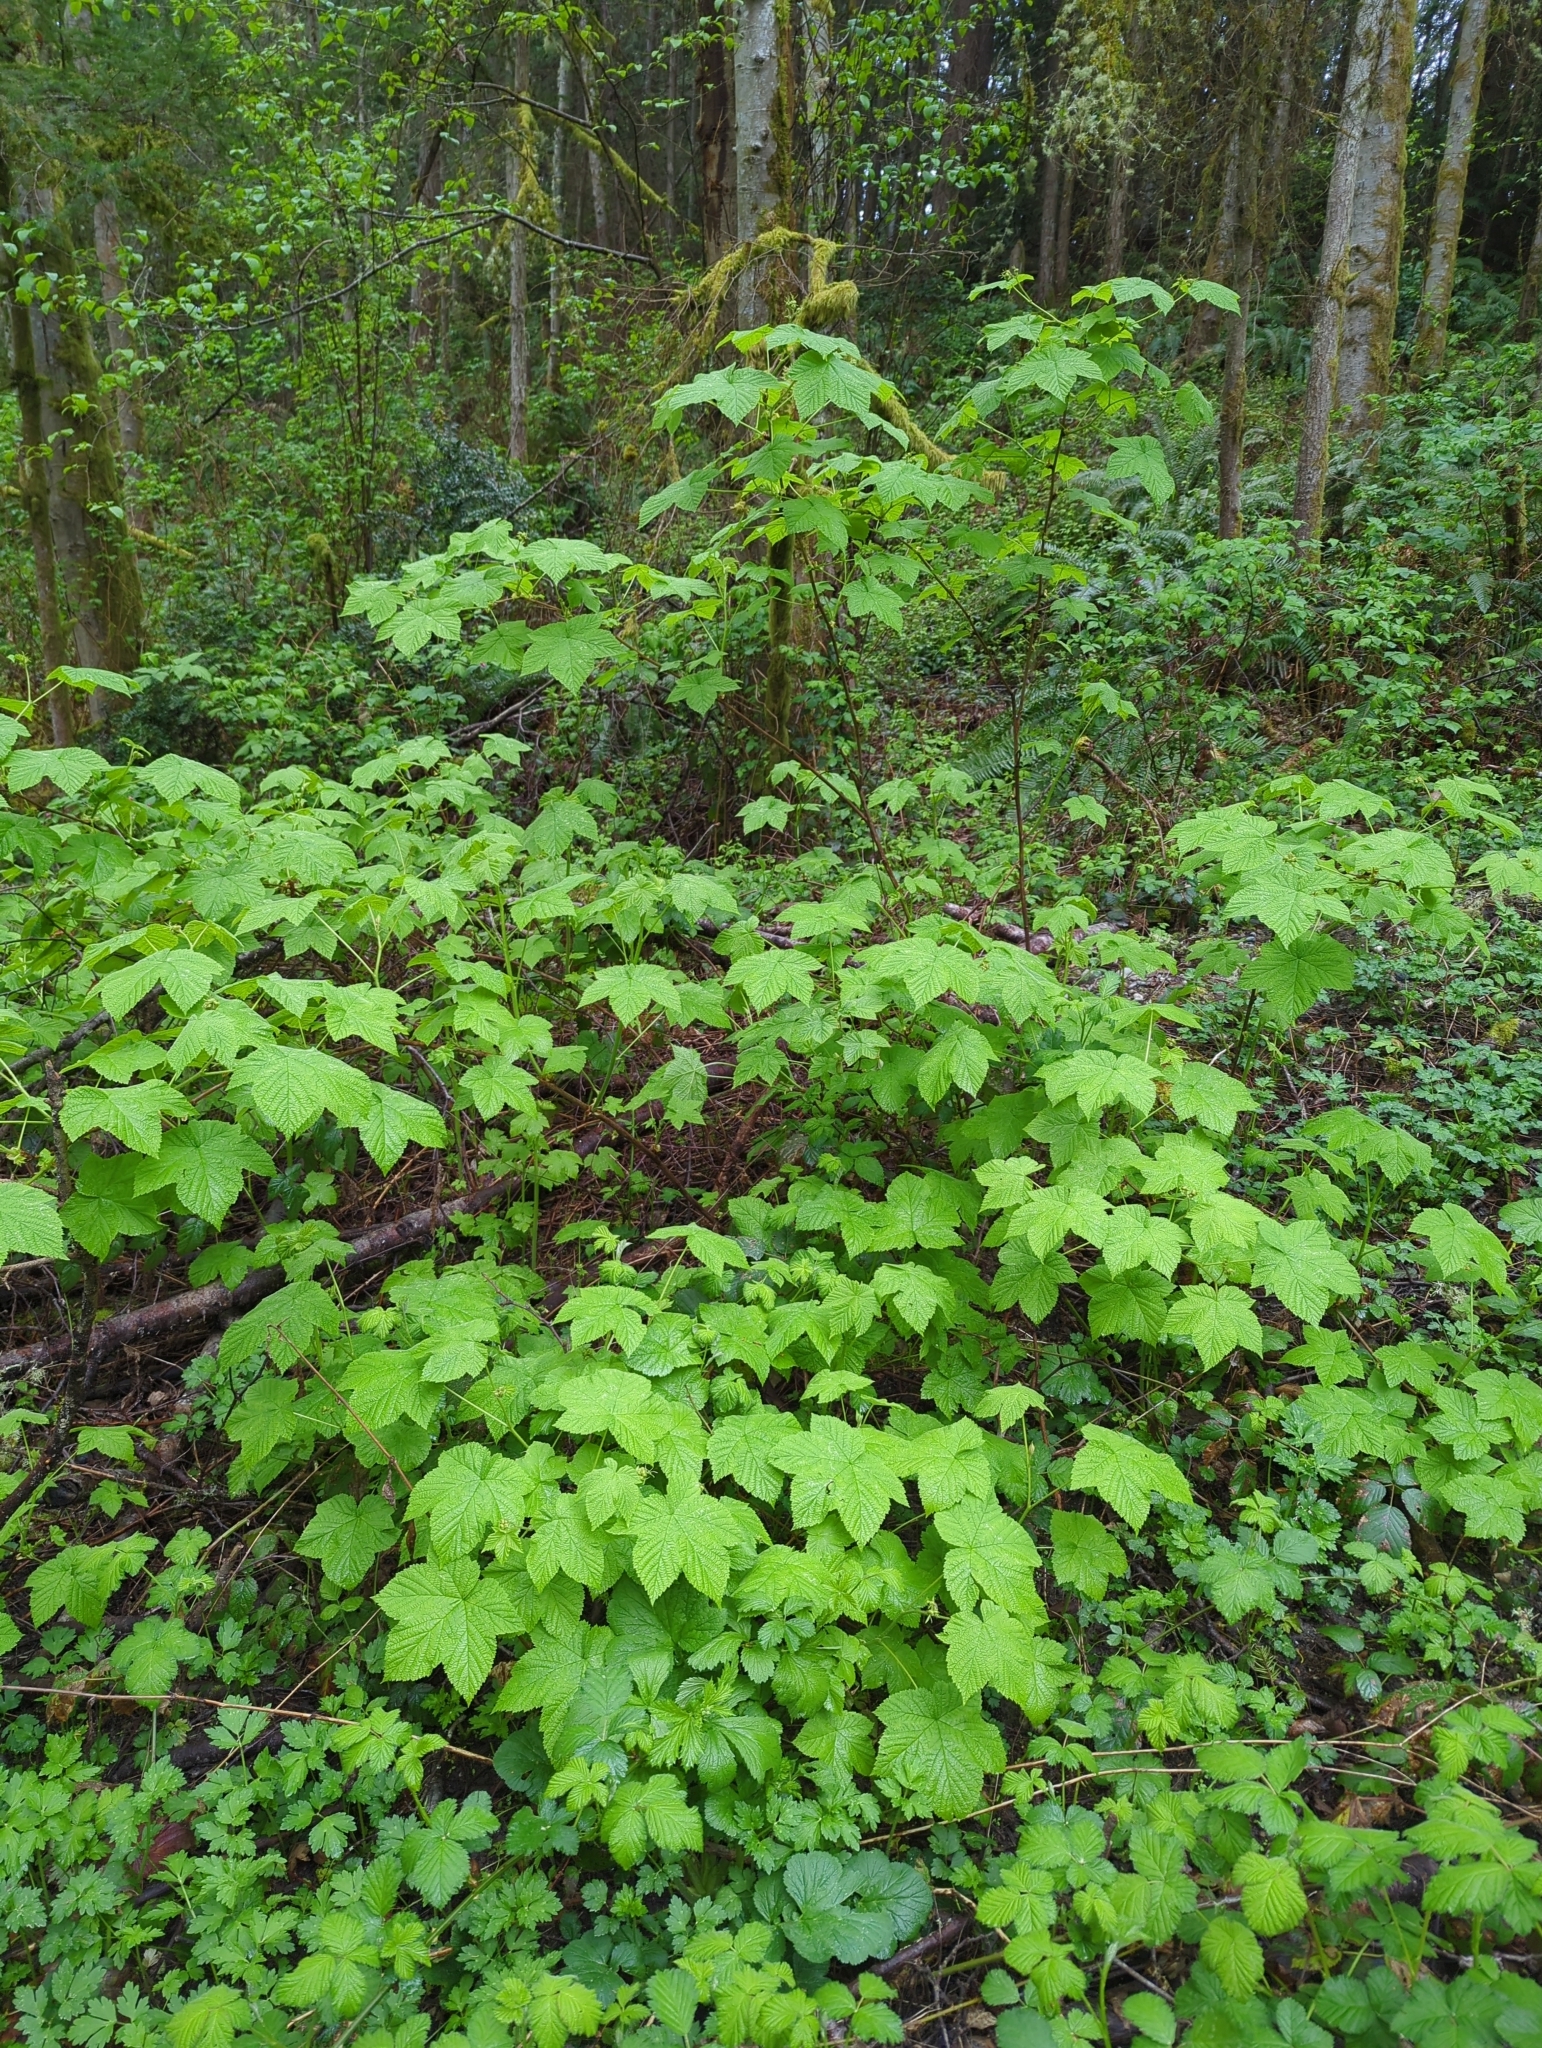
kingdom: Plantae
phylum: Tracheophyta
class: Magnoliopsida
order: Rosales
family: Rosaceae
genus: Rubus
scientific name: Rubus parviflorus
